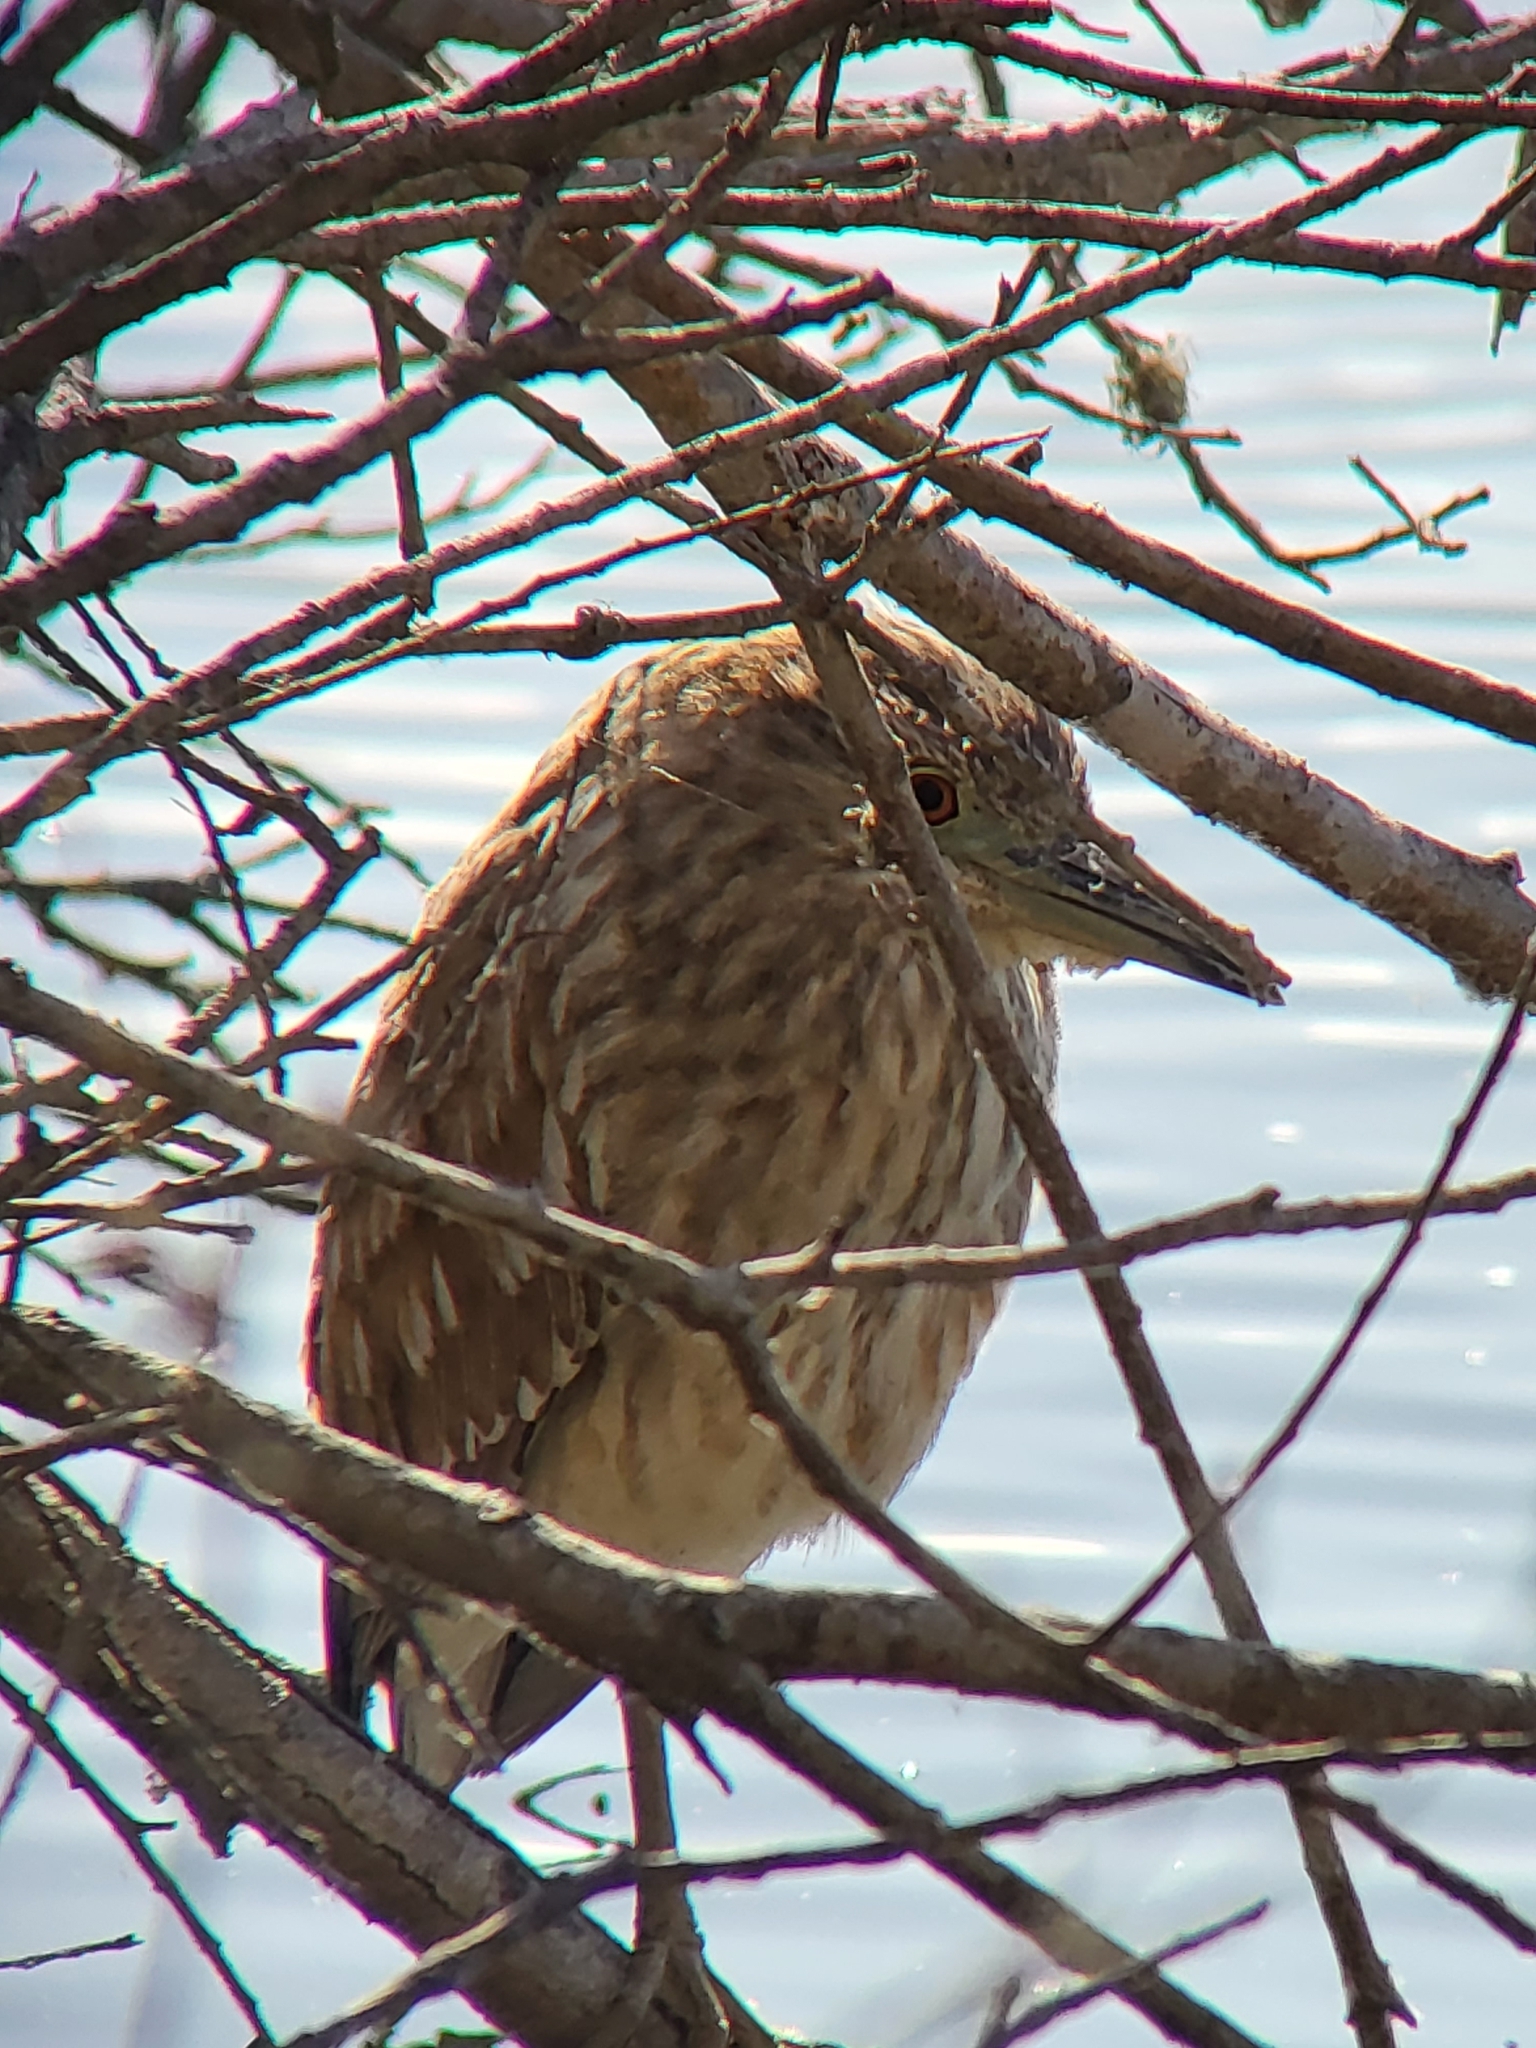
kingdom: Animalia
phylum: Chordata
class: Aves
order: Pelecaniformes
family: Ardeidae
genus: Nycticorax
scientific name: Nycticorax nycticorax
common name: Black-crowned night heron
